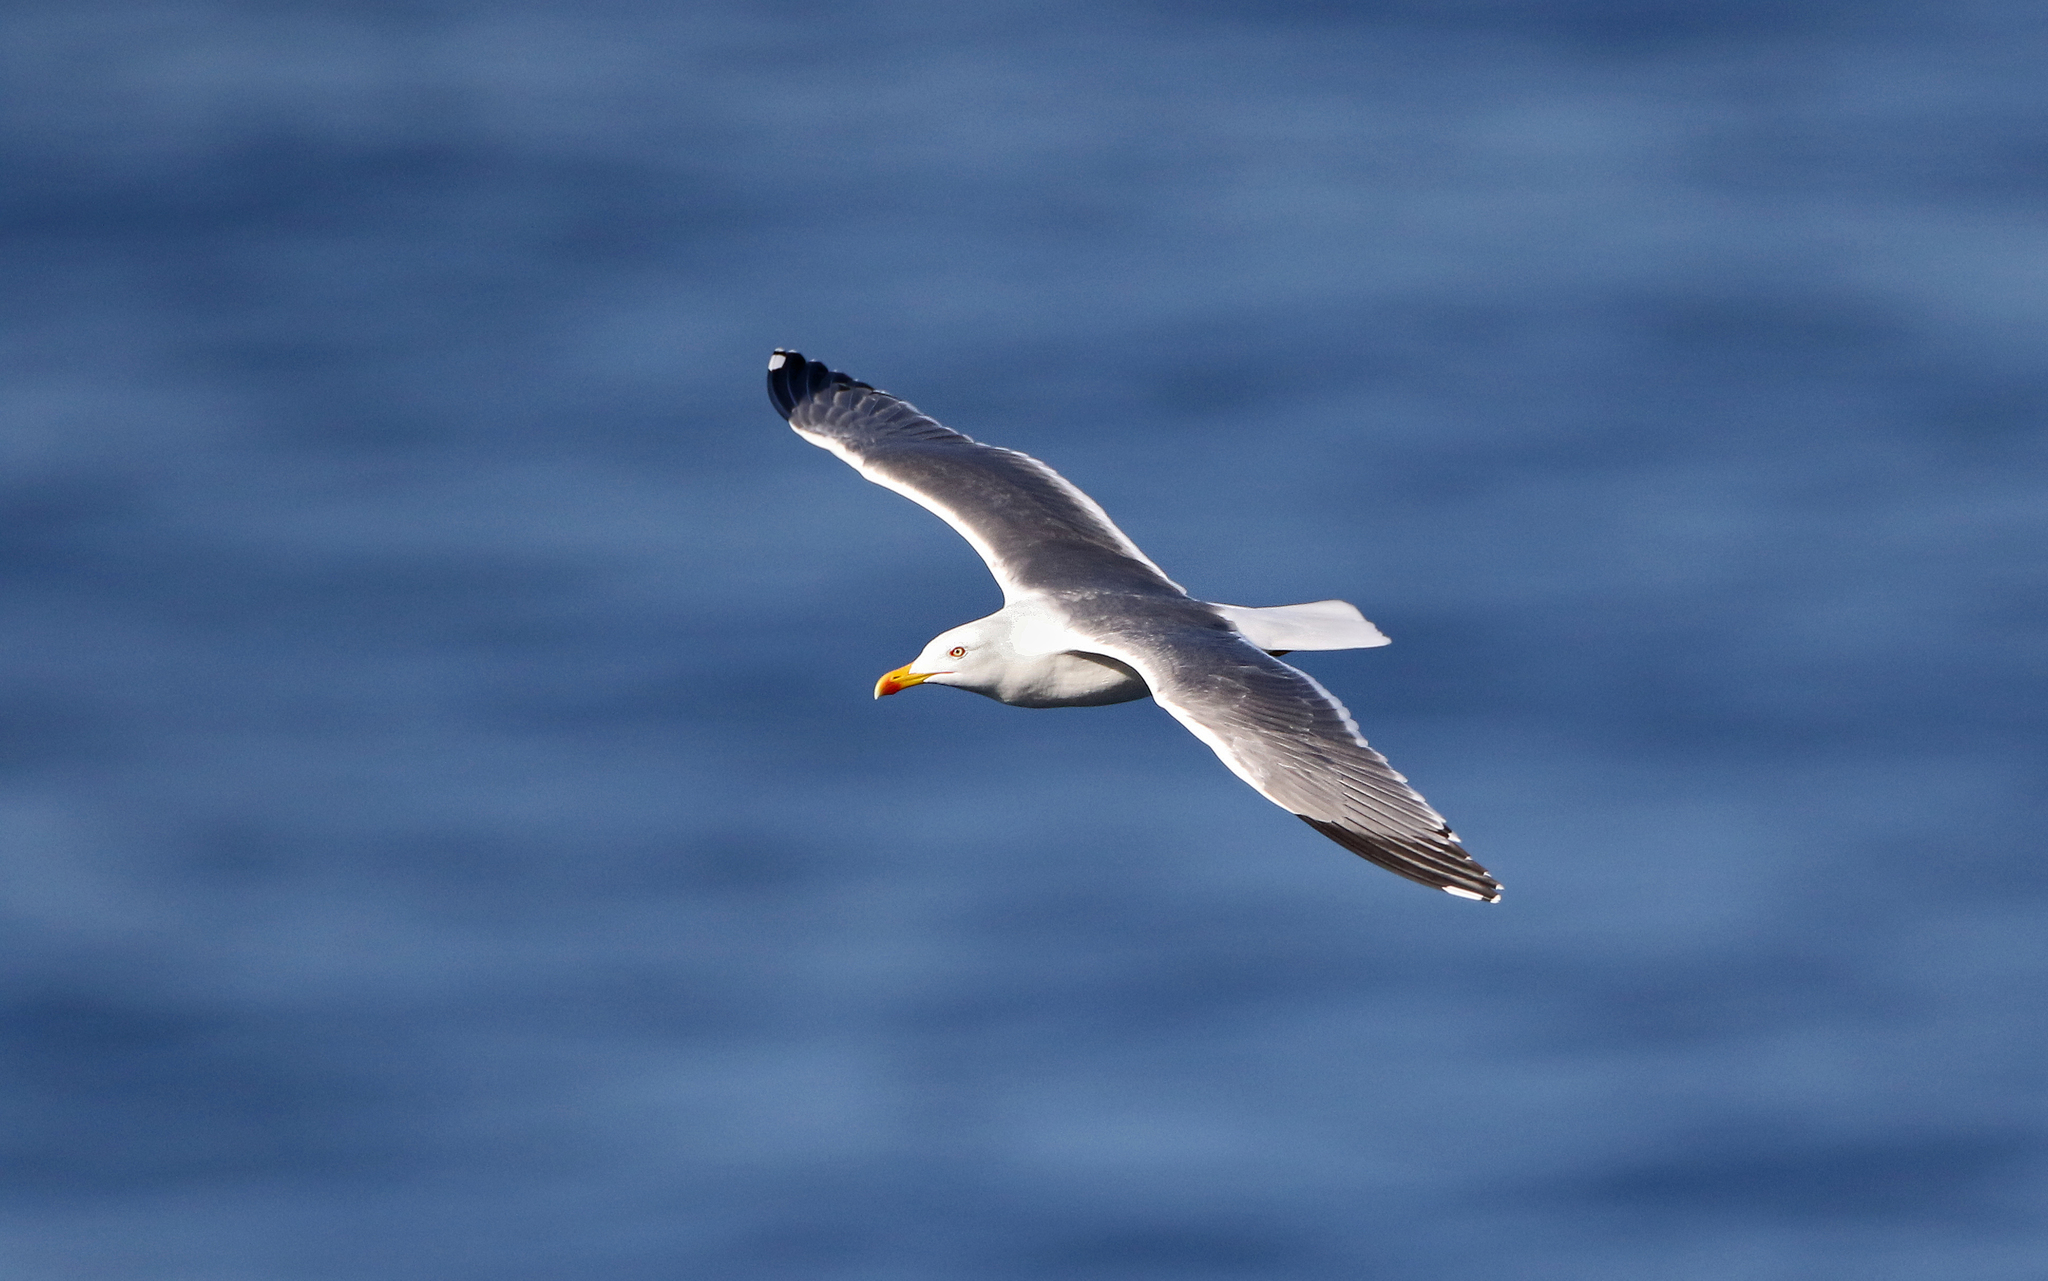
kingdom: Animalia
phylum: Chordata
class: Aves
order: Charadriiformes
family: Laridae
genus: Larus
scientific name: Larus michahellis
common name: Yellow-legged gull
